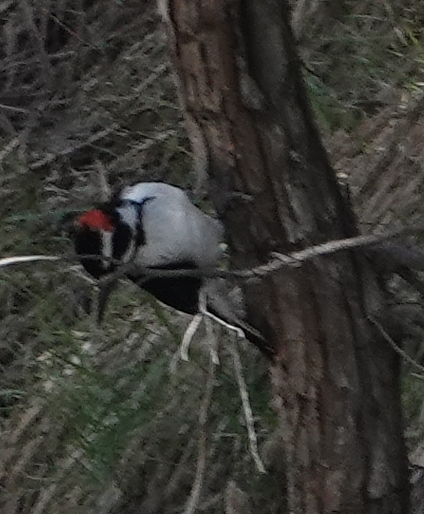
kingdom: Animalia
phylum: Chordata
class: Aves
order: Piciformes
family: Picidae
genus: Leuconotopicus
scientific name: Leuconotopicus villosus
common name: Hairy woodpecker
